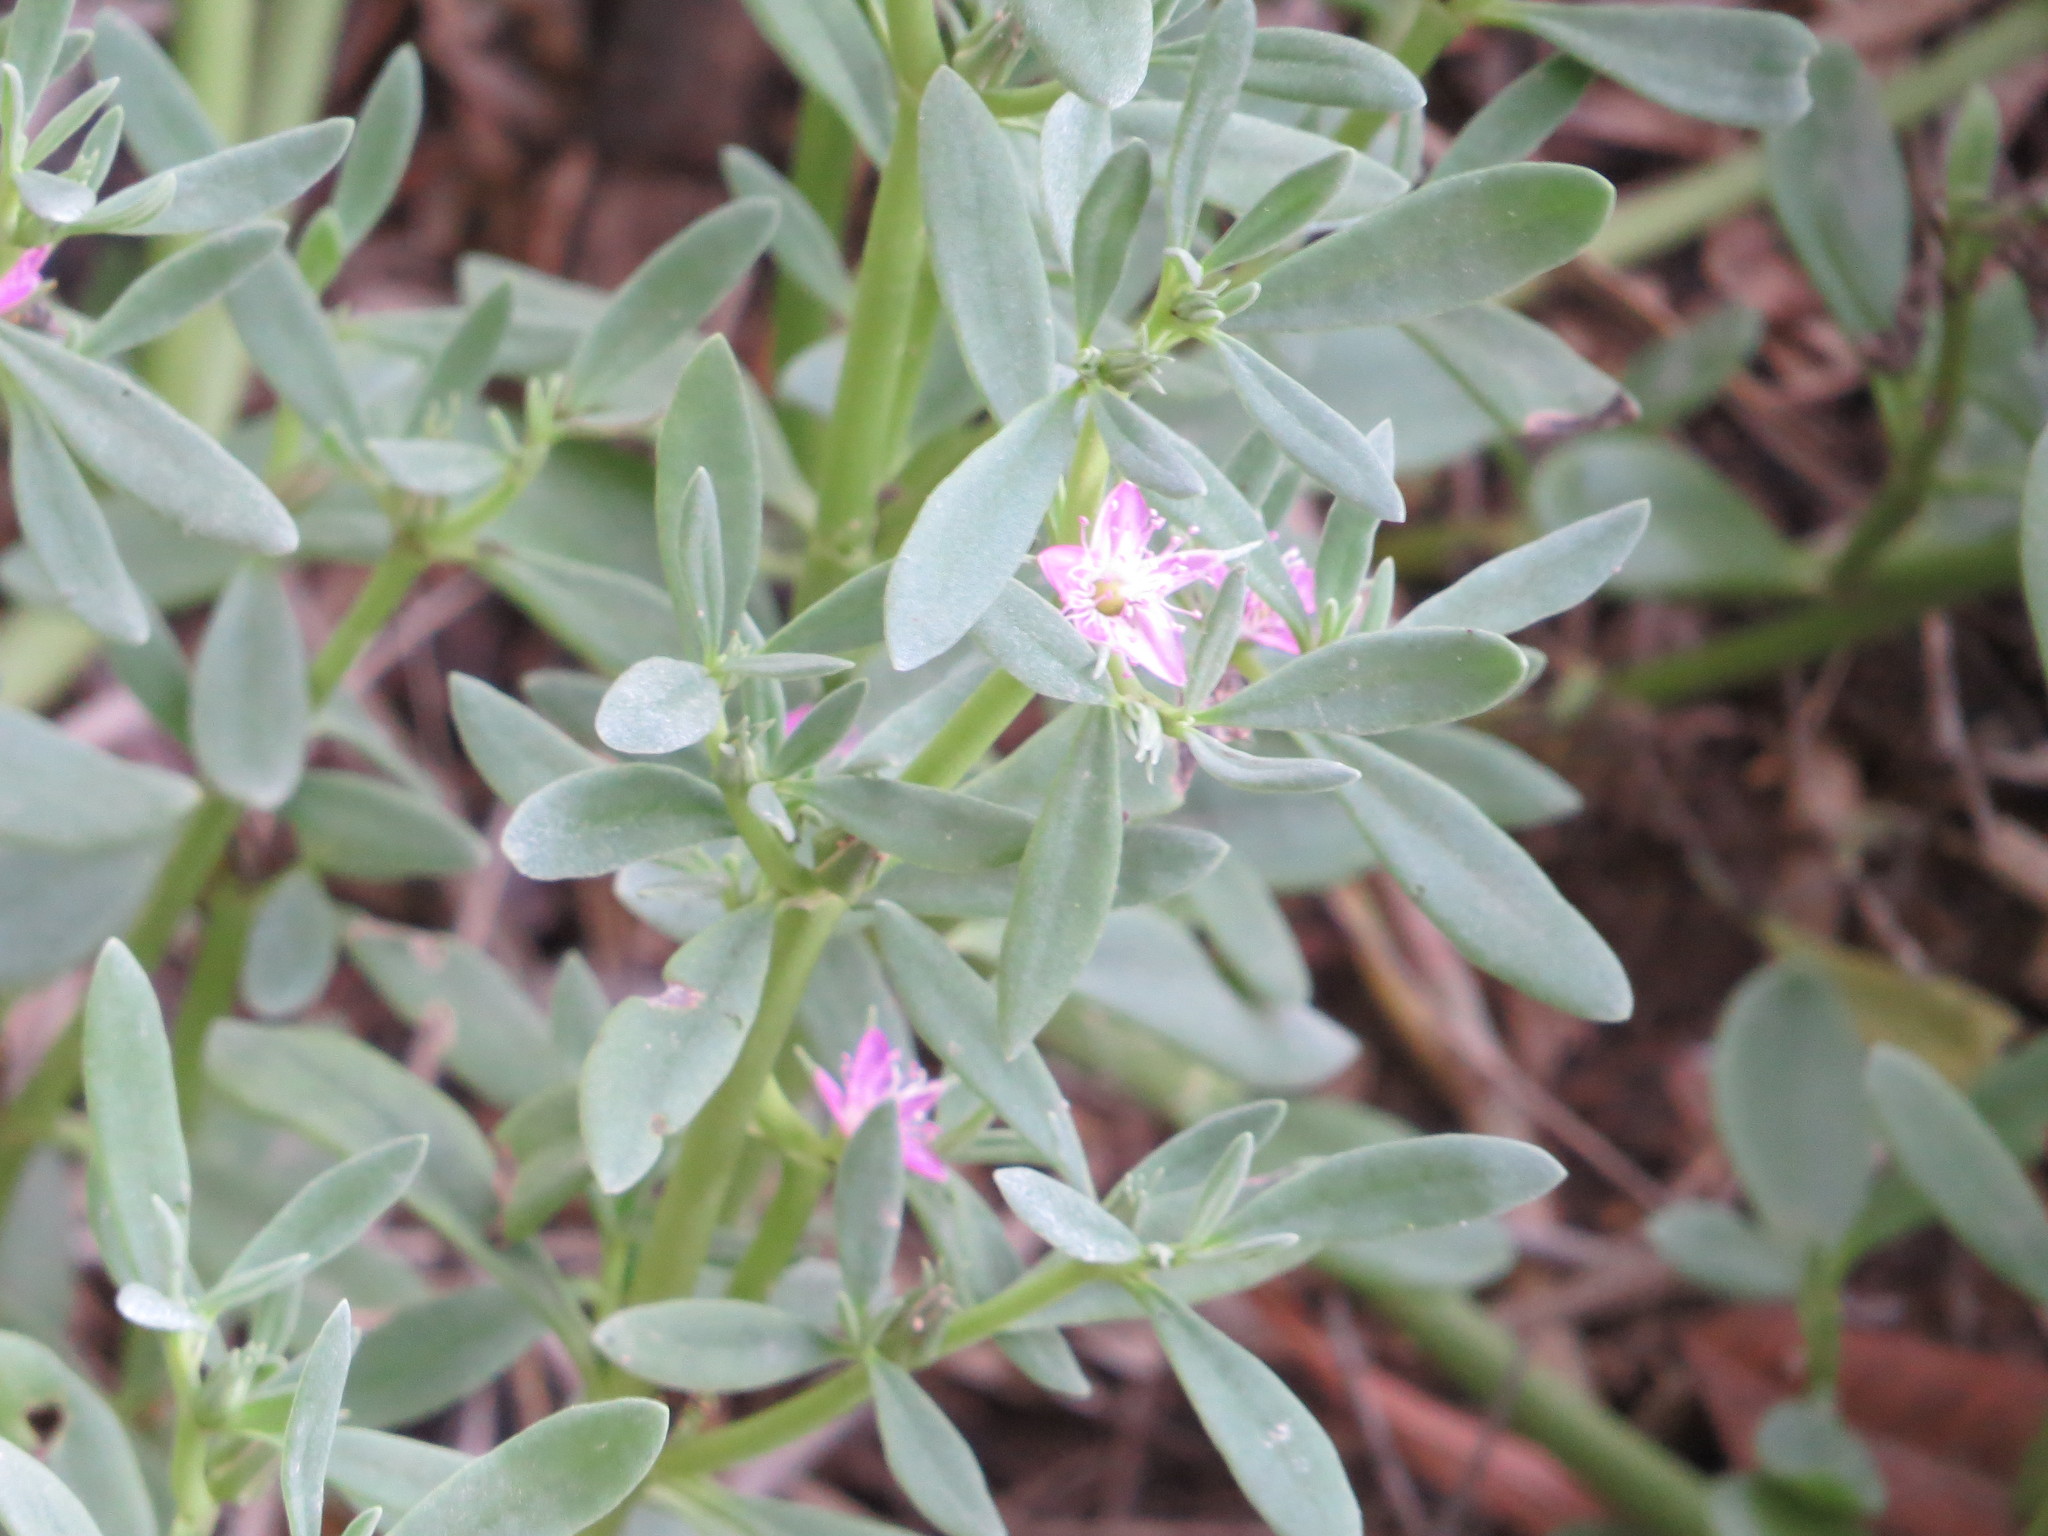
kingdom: Plantae
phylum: Tracheophyta
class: Magnoliopsida
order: Caryophyllales
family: Aizoaceae
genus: Sesuvium
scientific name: Sesuvium portulacastrum
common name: Sea-purslane
